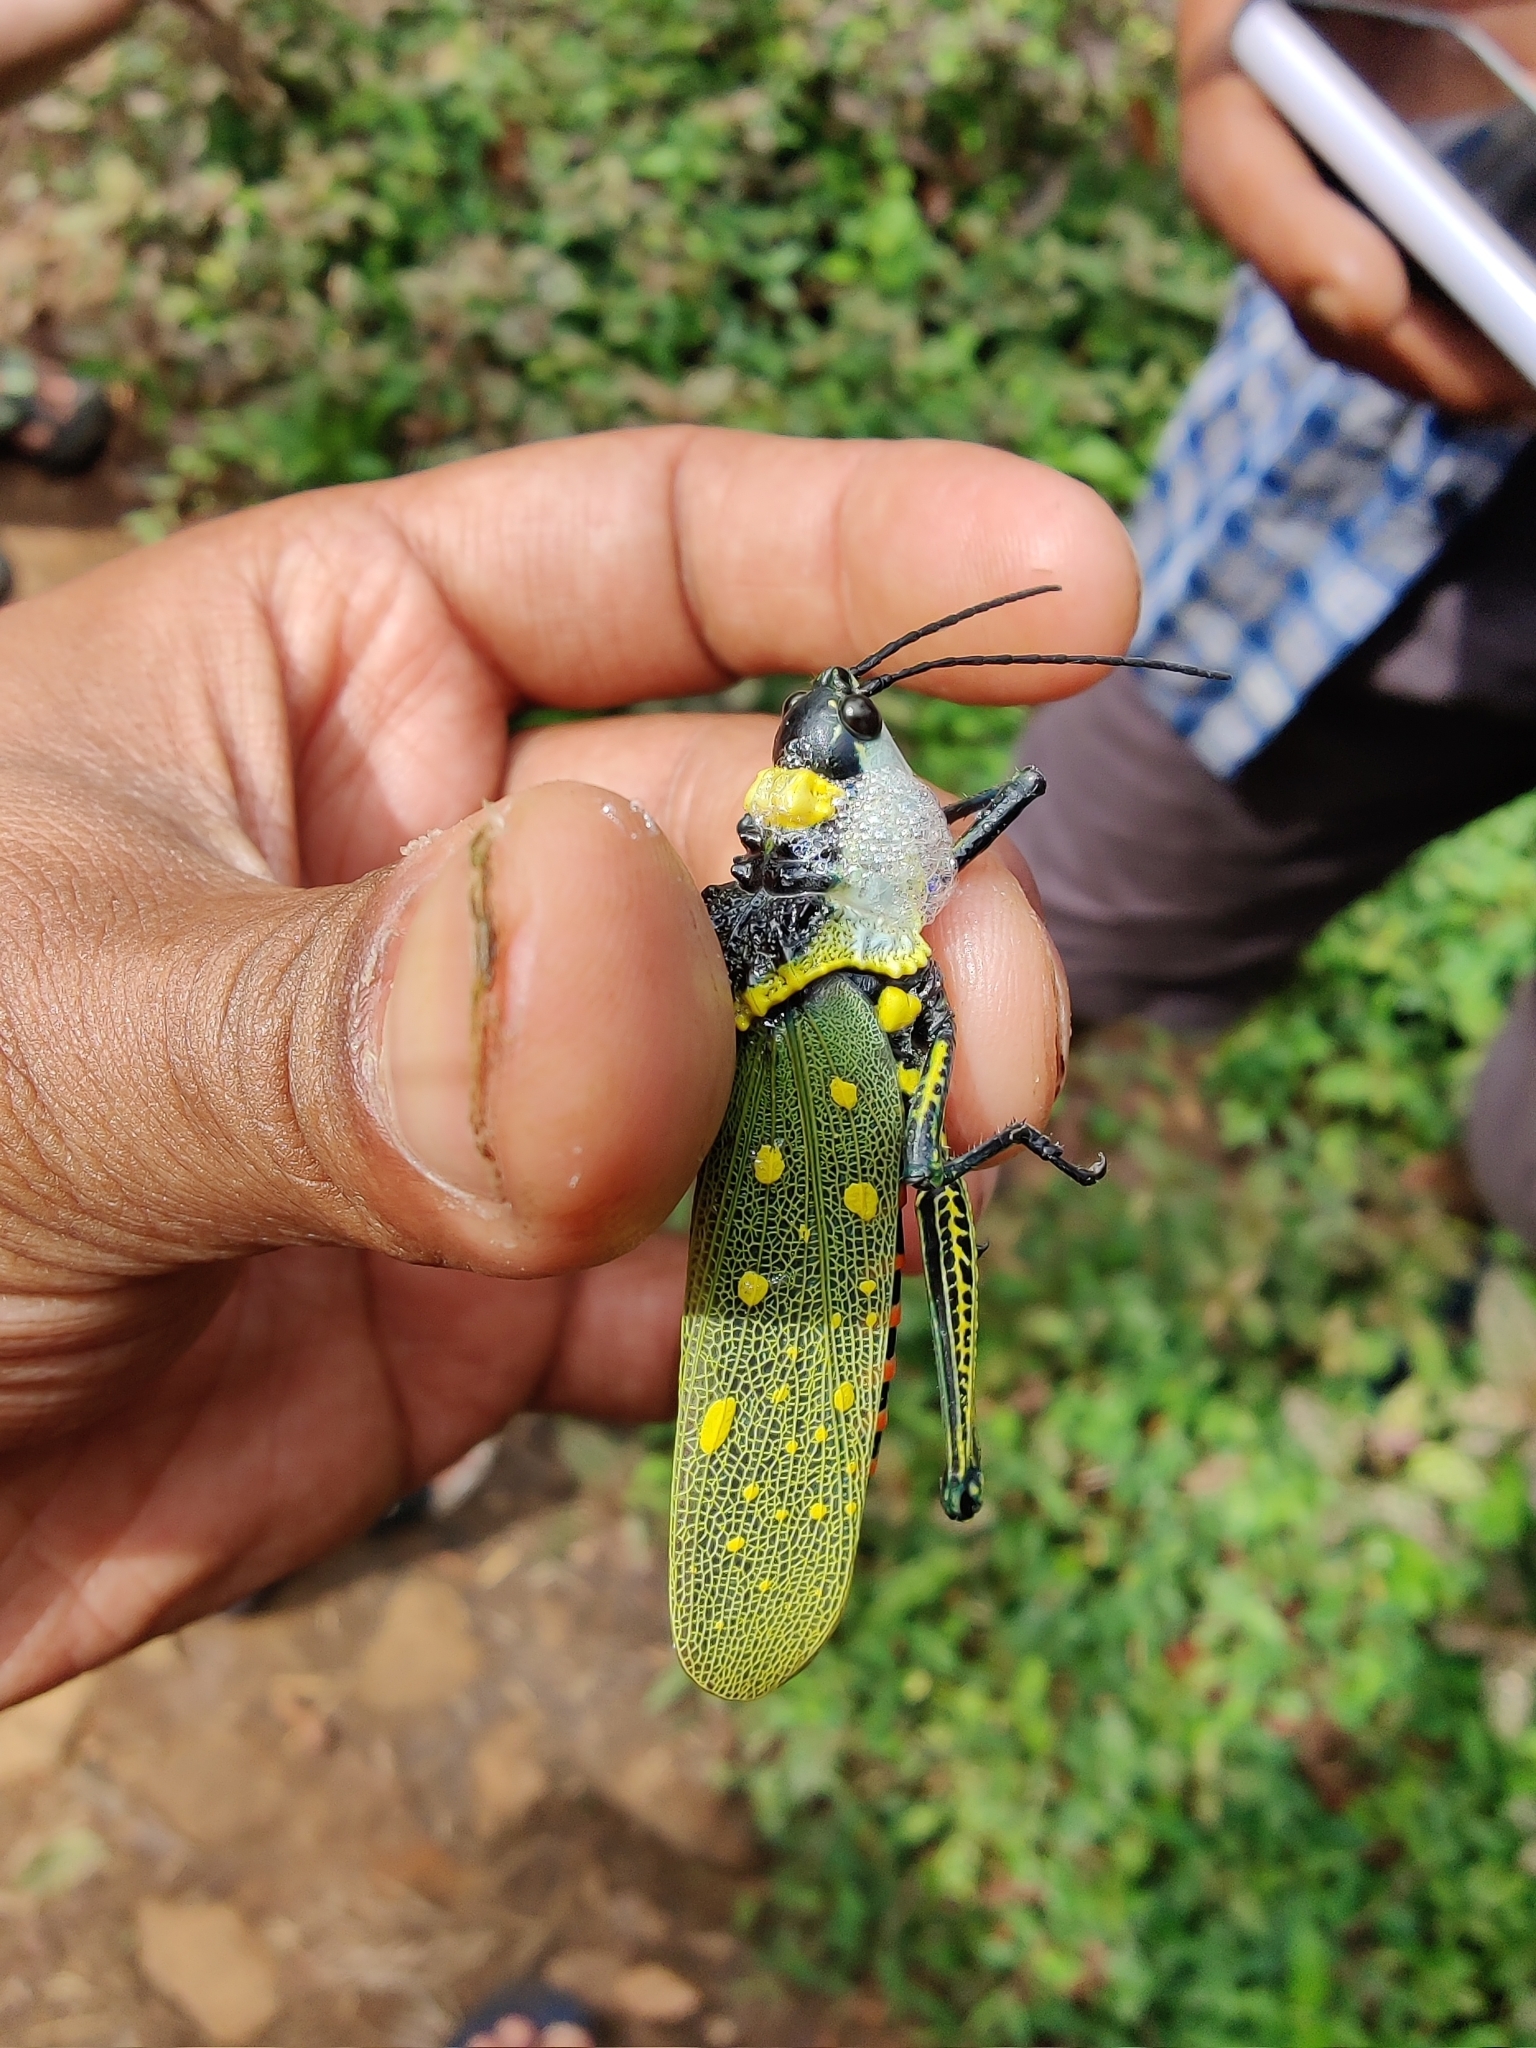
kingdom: Animalia
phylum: Arthropoda
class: Insecta
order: Orthoptera
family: Pyrgomorphidae
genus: Aularches
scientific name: Aularches miliaris
